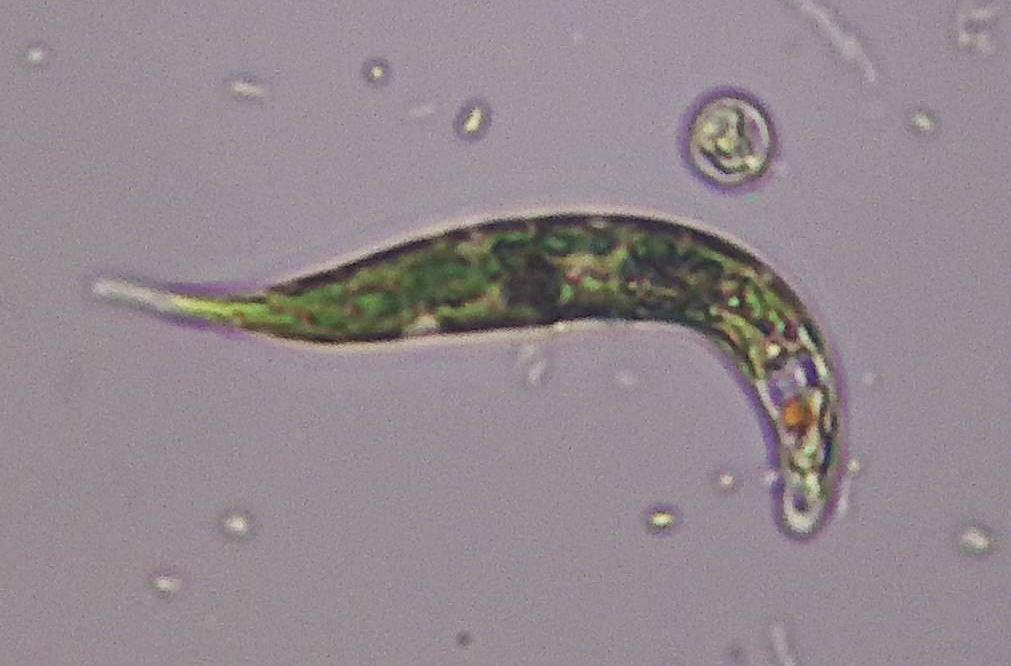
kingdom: Protozoa
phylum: Euglenozoa
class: Euglenoidea
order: Euglenida
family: Euglenaceae
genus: Euglena
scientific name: Euglena mutabilis
